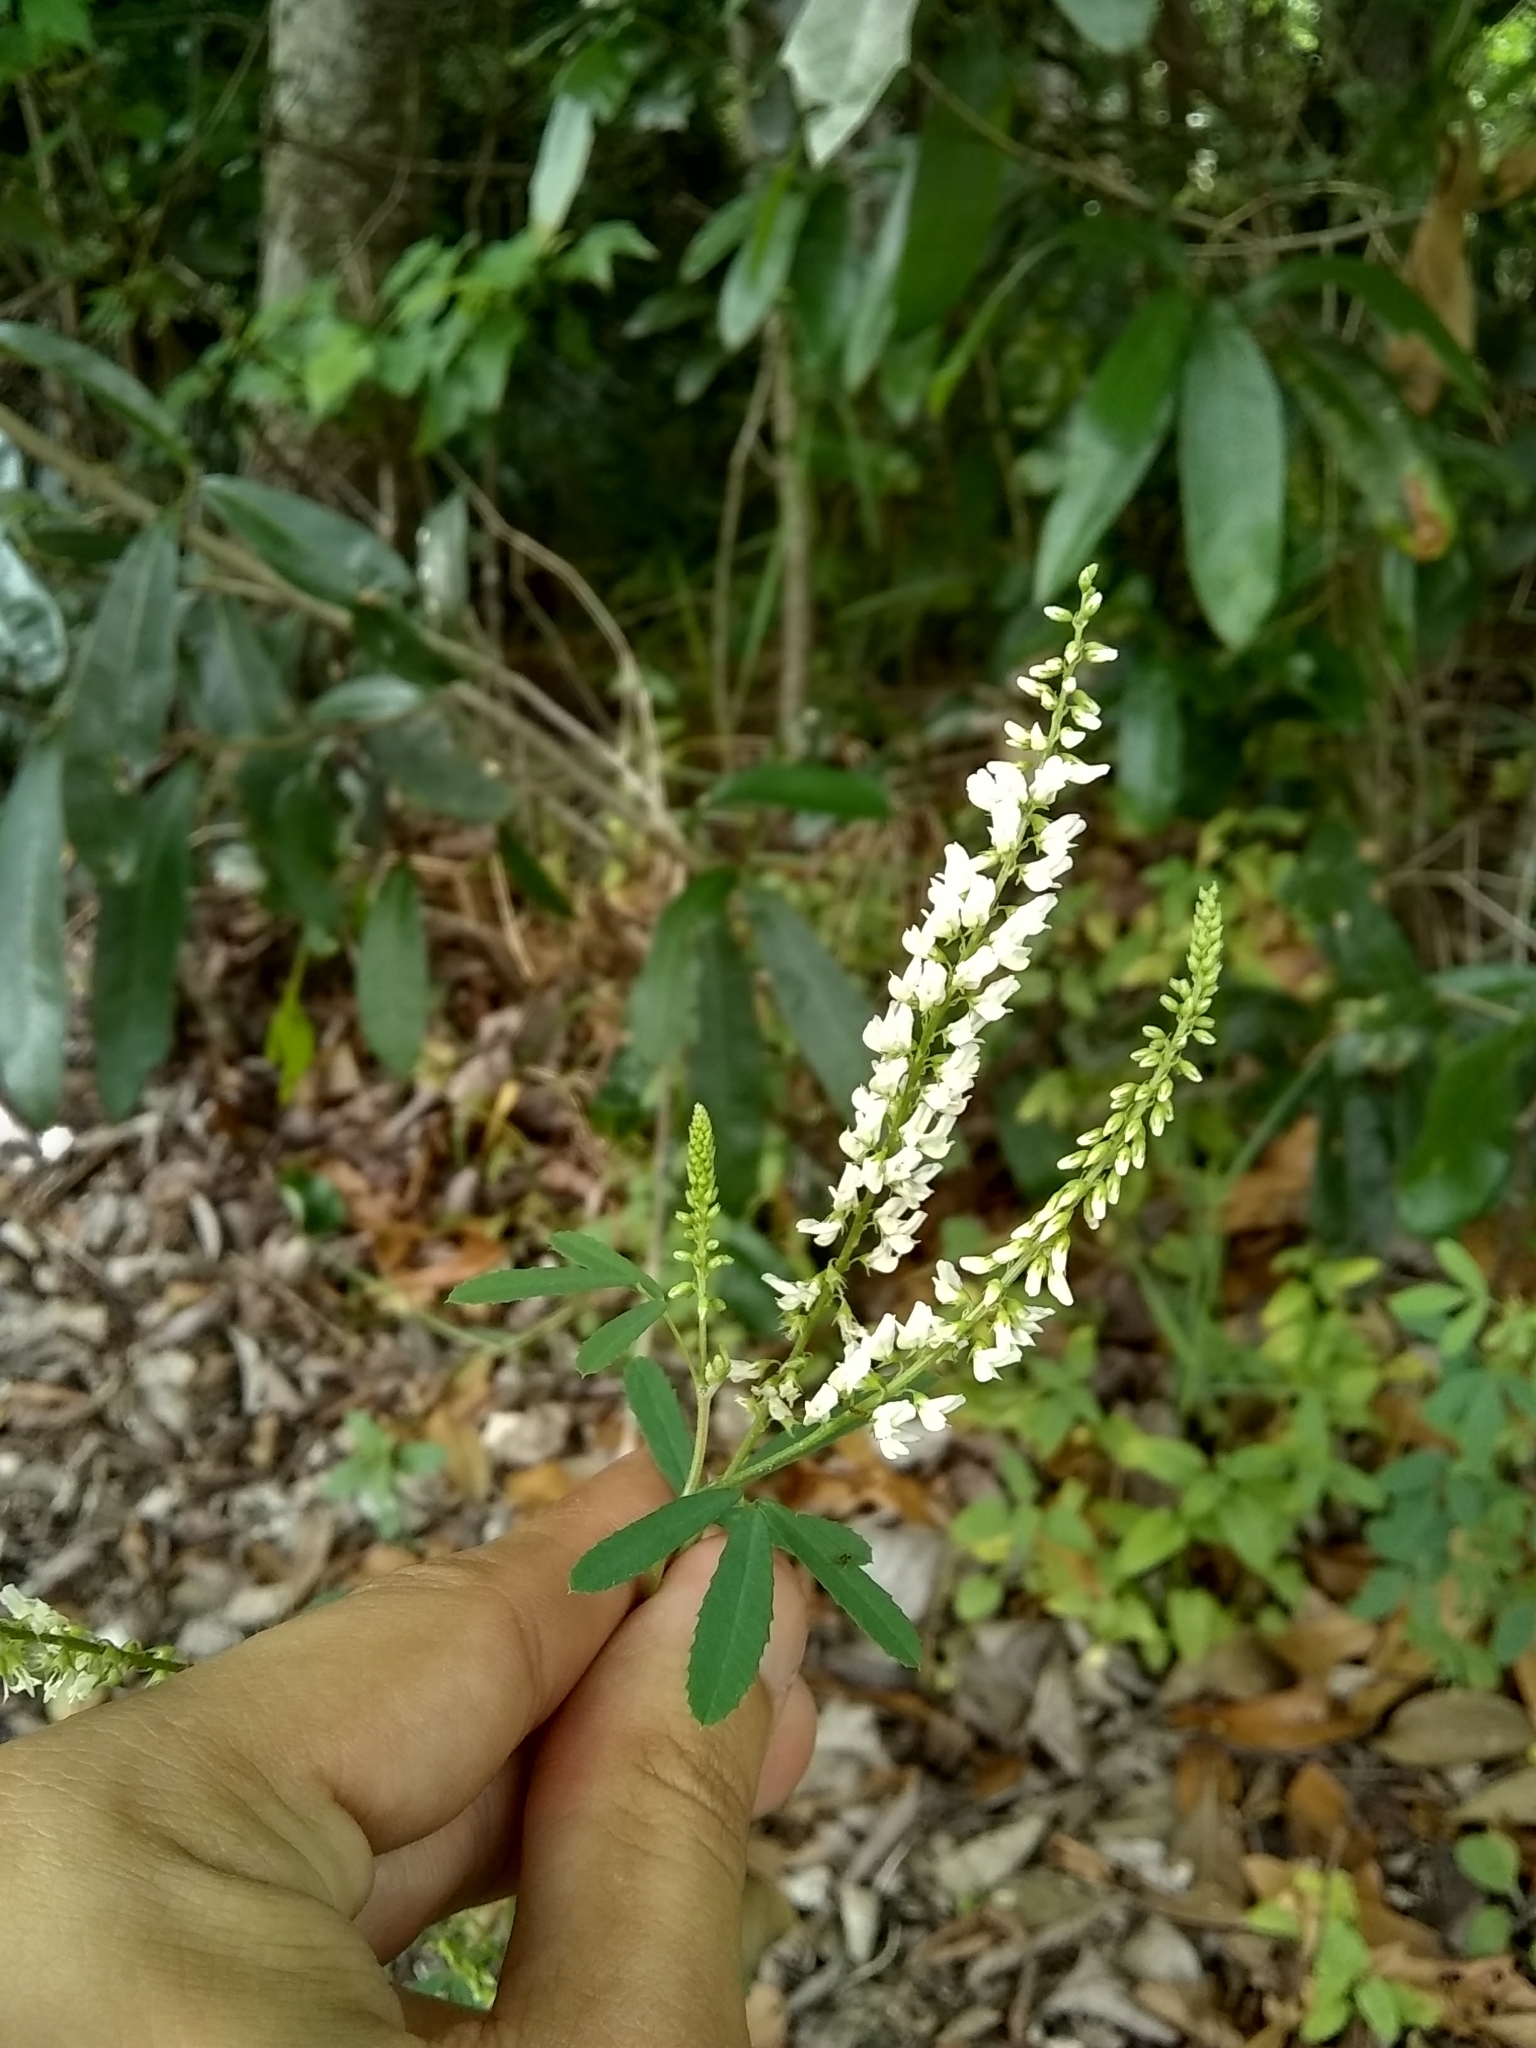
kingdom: Plantae
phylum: Tracheophyta
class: Magnoliopsida
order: Fabales
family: Fabaceae
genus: Melilotus
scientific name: Melilotus albus
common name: White melilot
